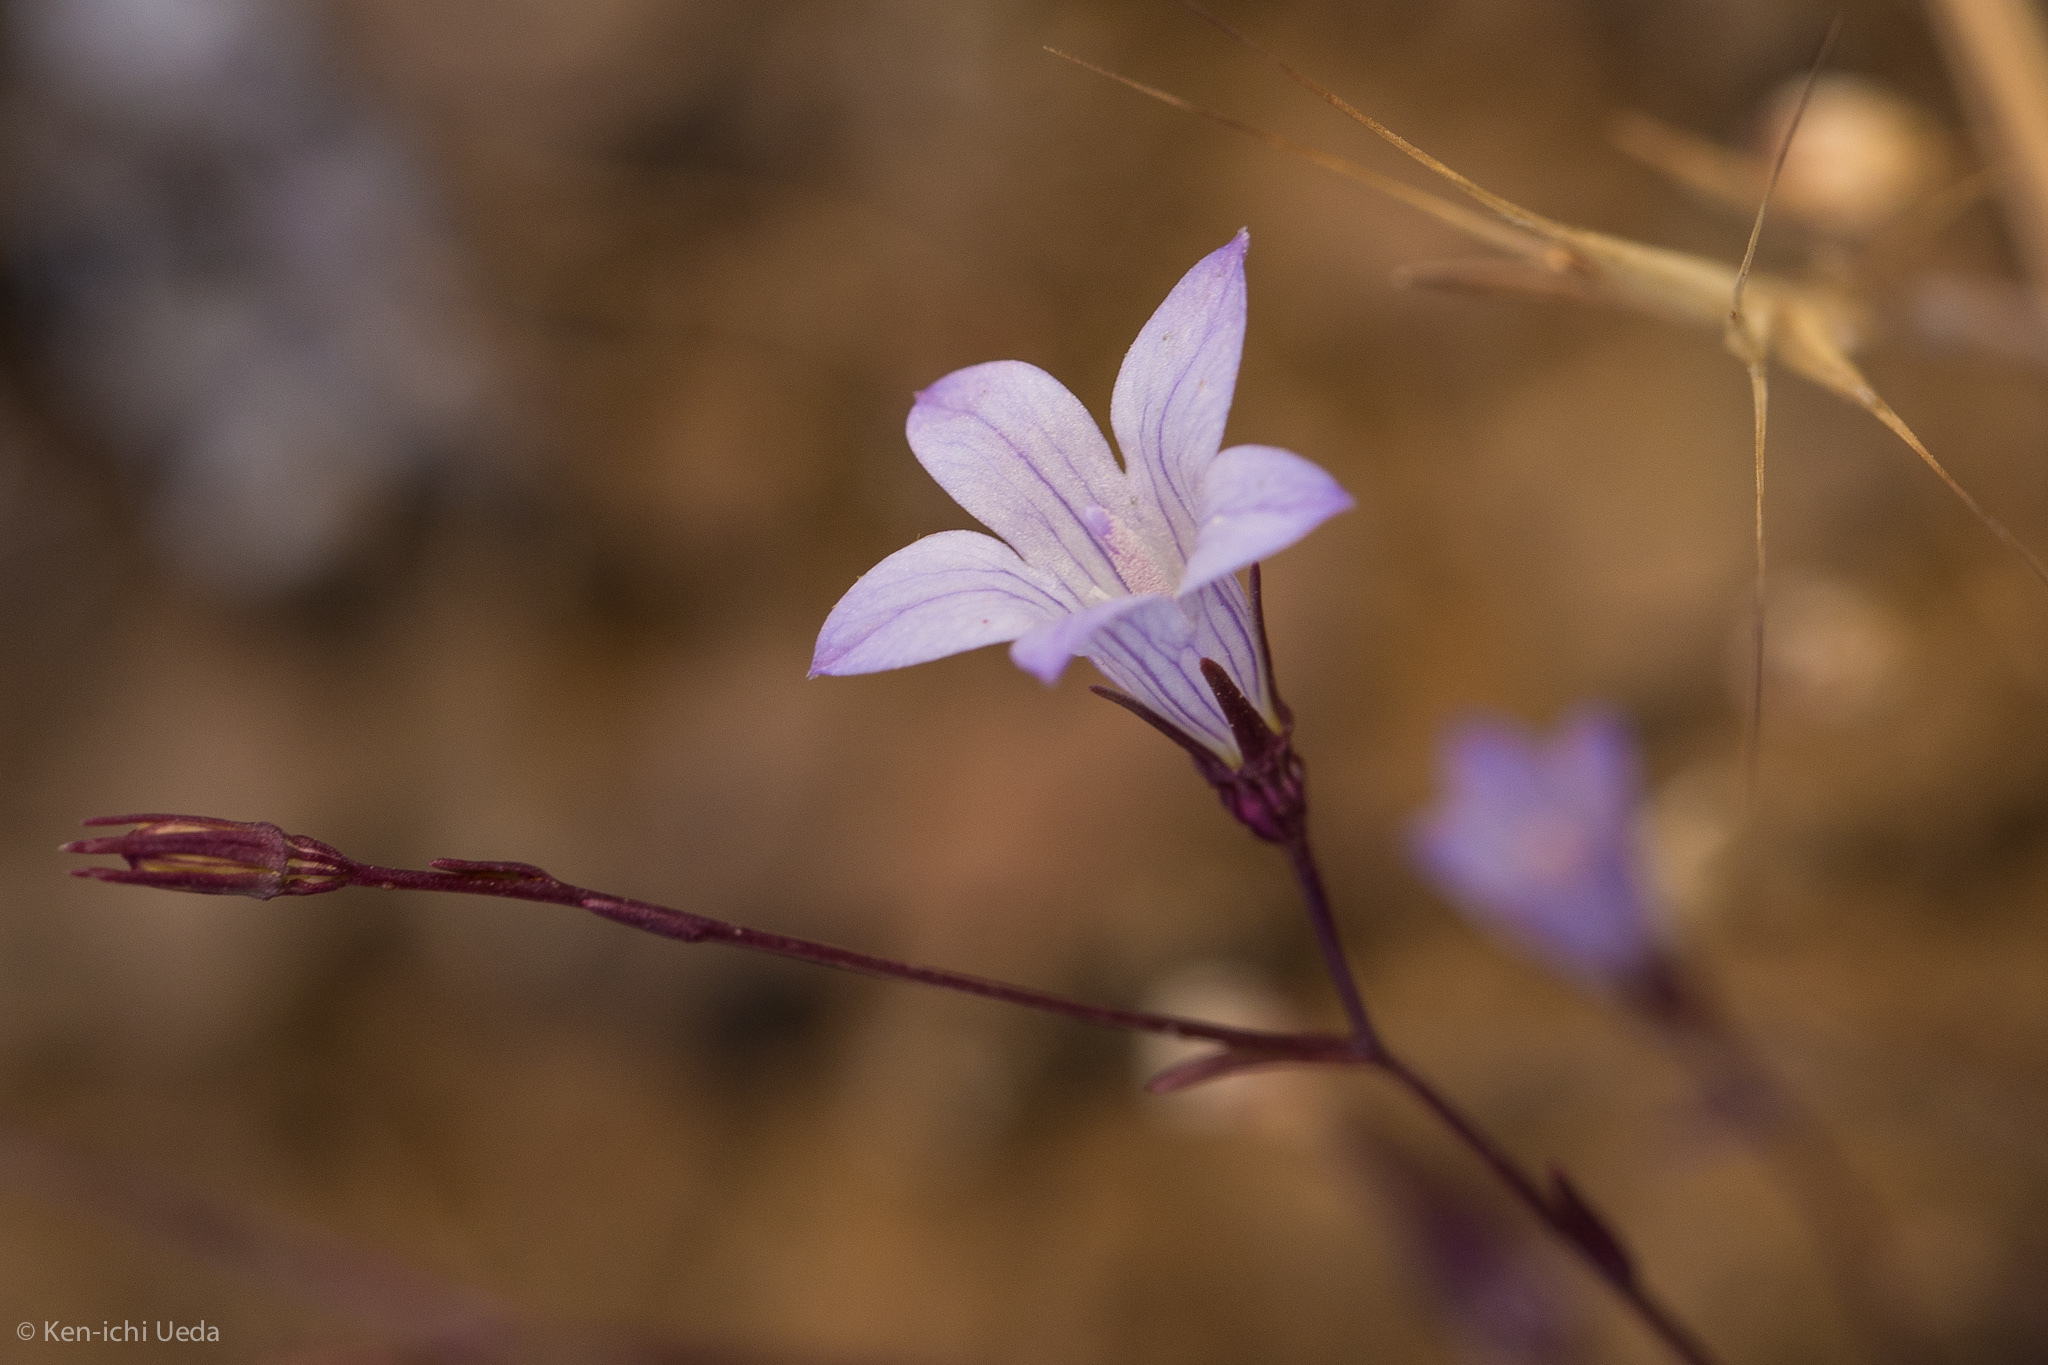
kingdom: Plantae
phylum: Tracheophyta
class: Magnoliopsida
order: Asterales
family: Campanulaceae
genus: Ravenella
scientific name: Ravenella exigua
